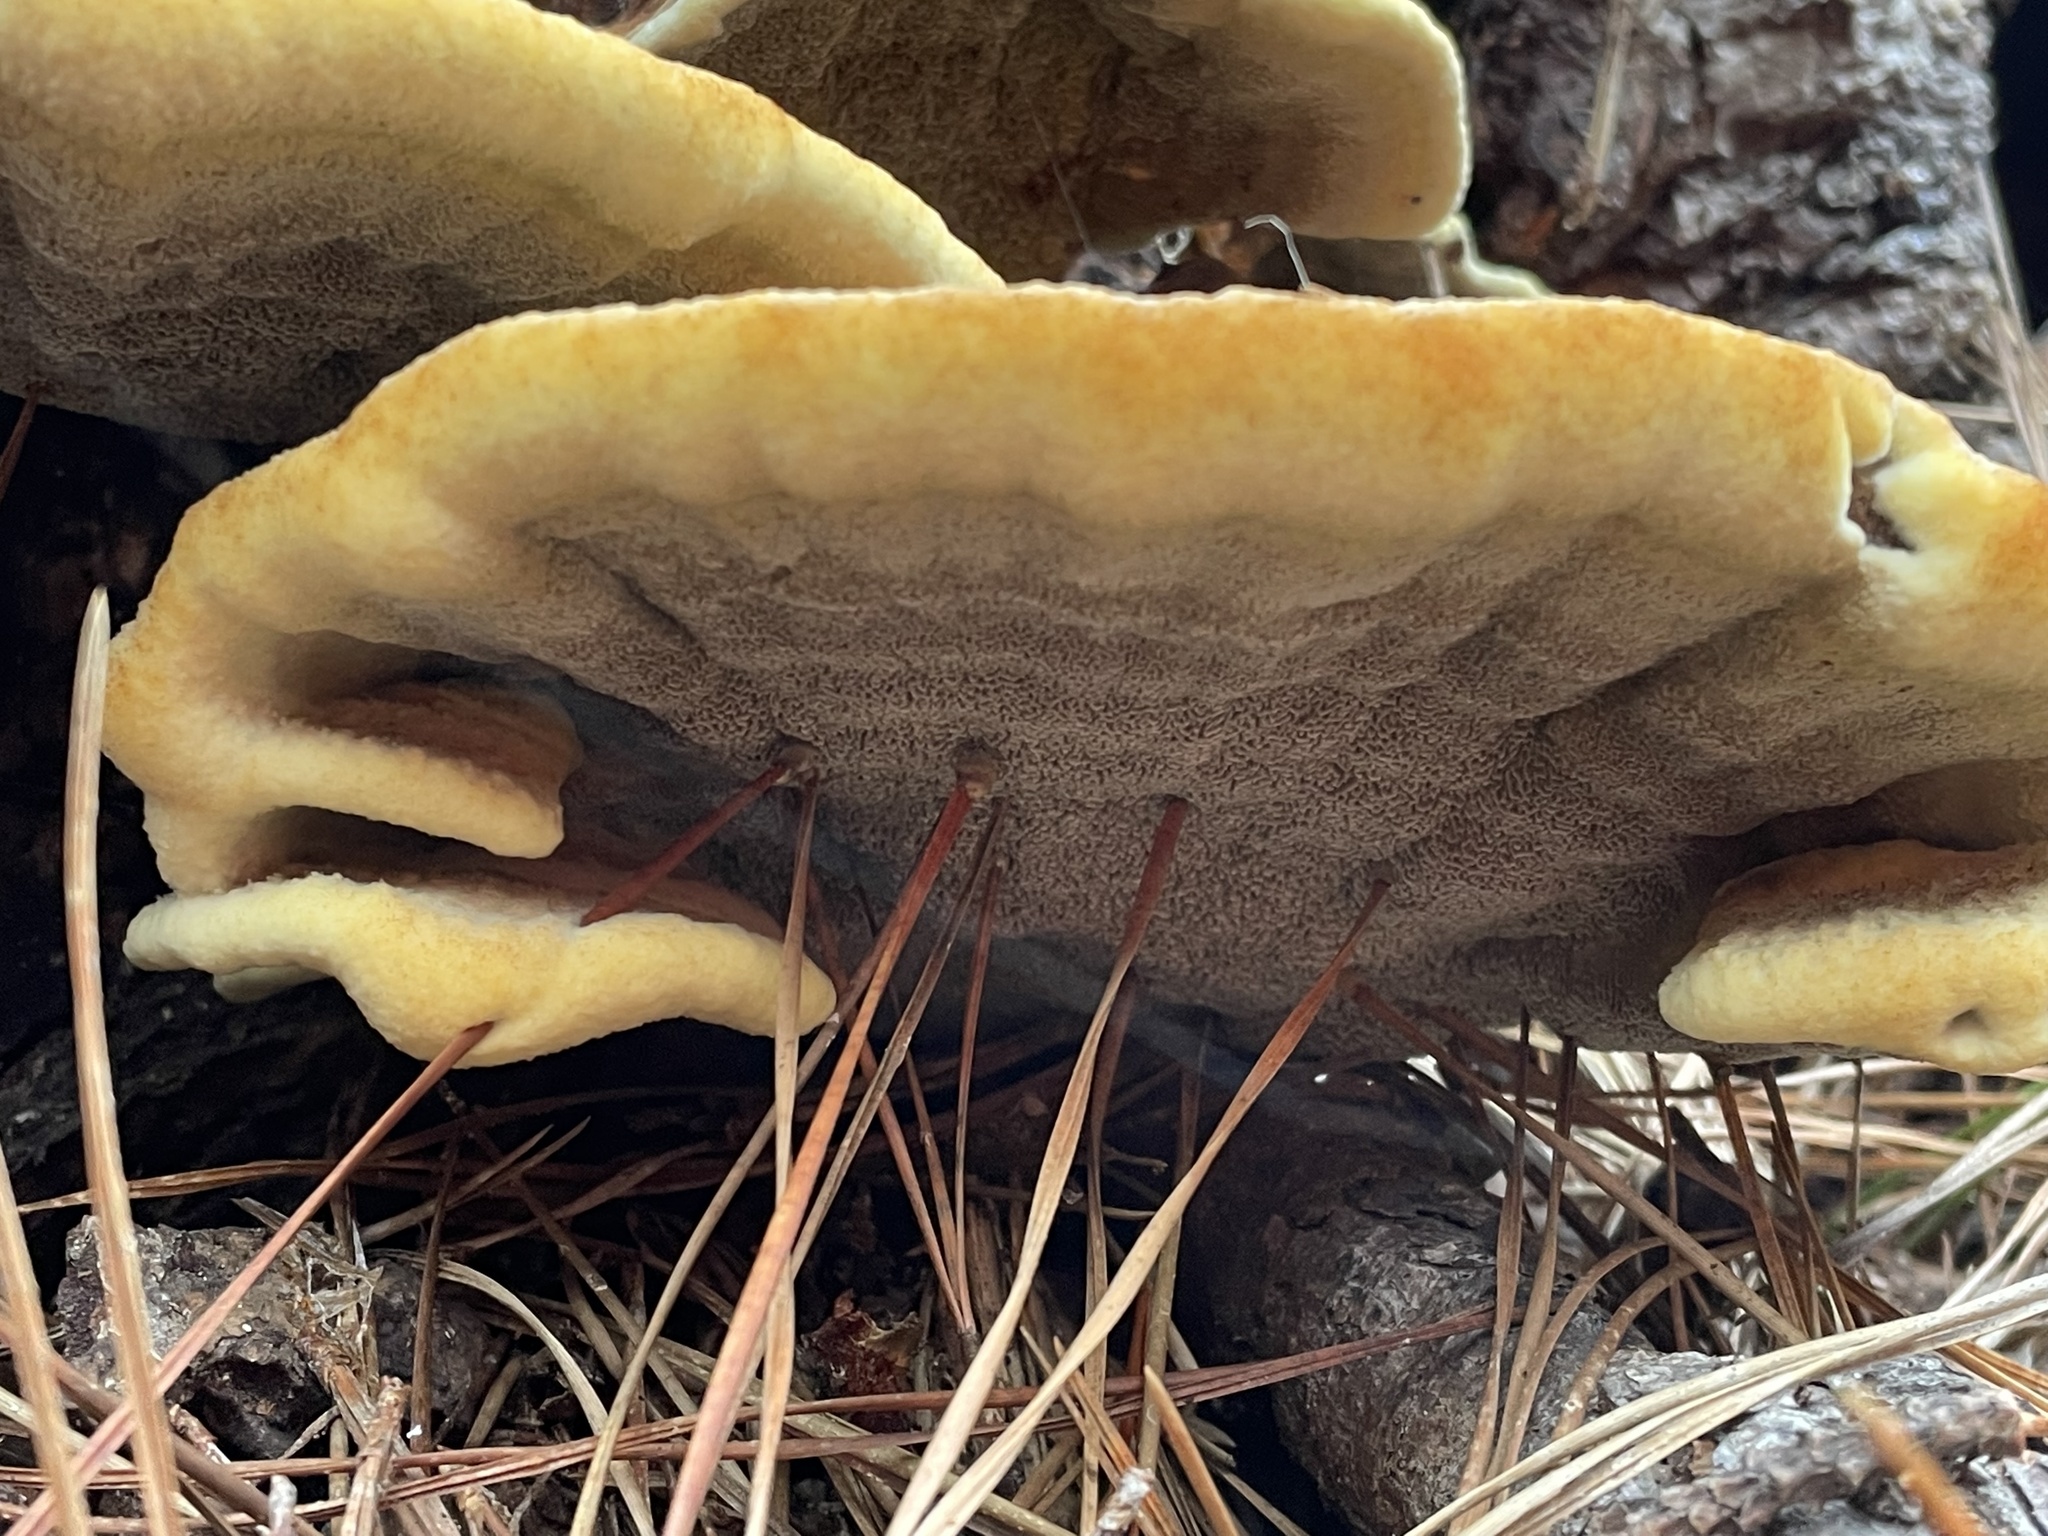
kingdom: Fungi
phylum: Basidiomycota
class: Agaricomycetes
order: Polyporales
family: Laetiporaceae
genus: Phaeolus
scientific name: Phaeolus schweinitzii
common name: Dyer's mazegill
